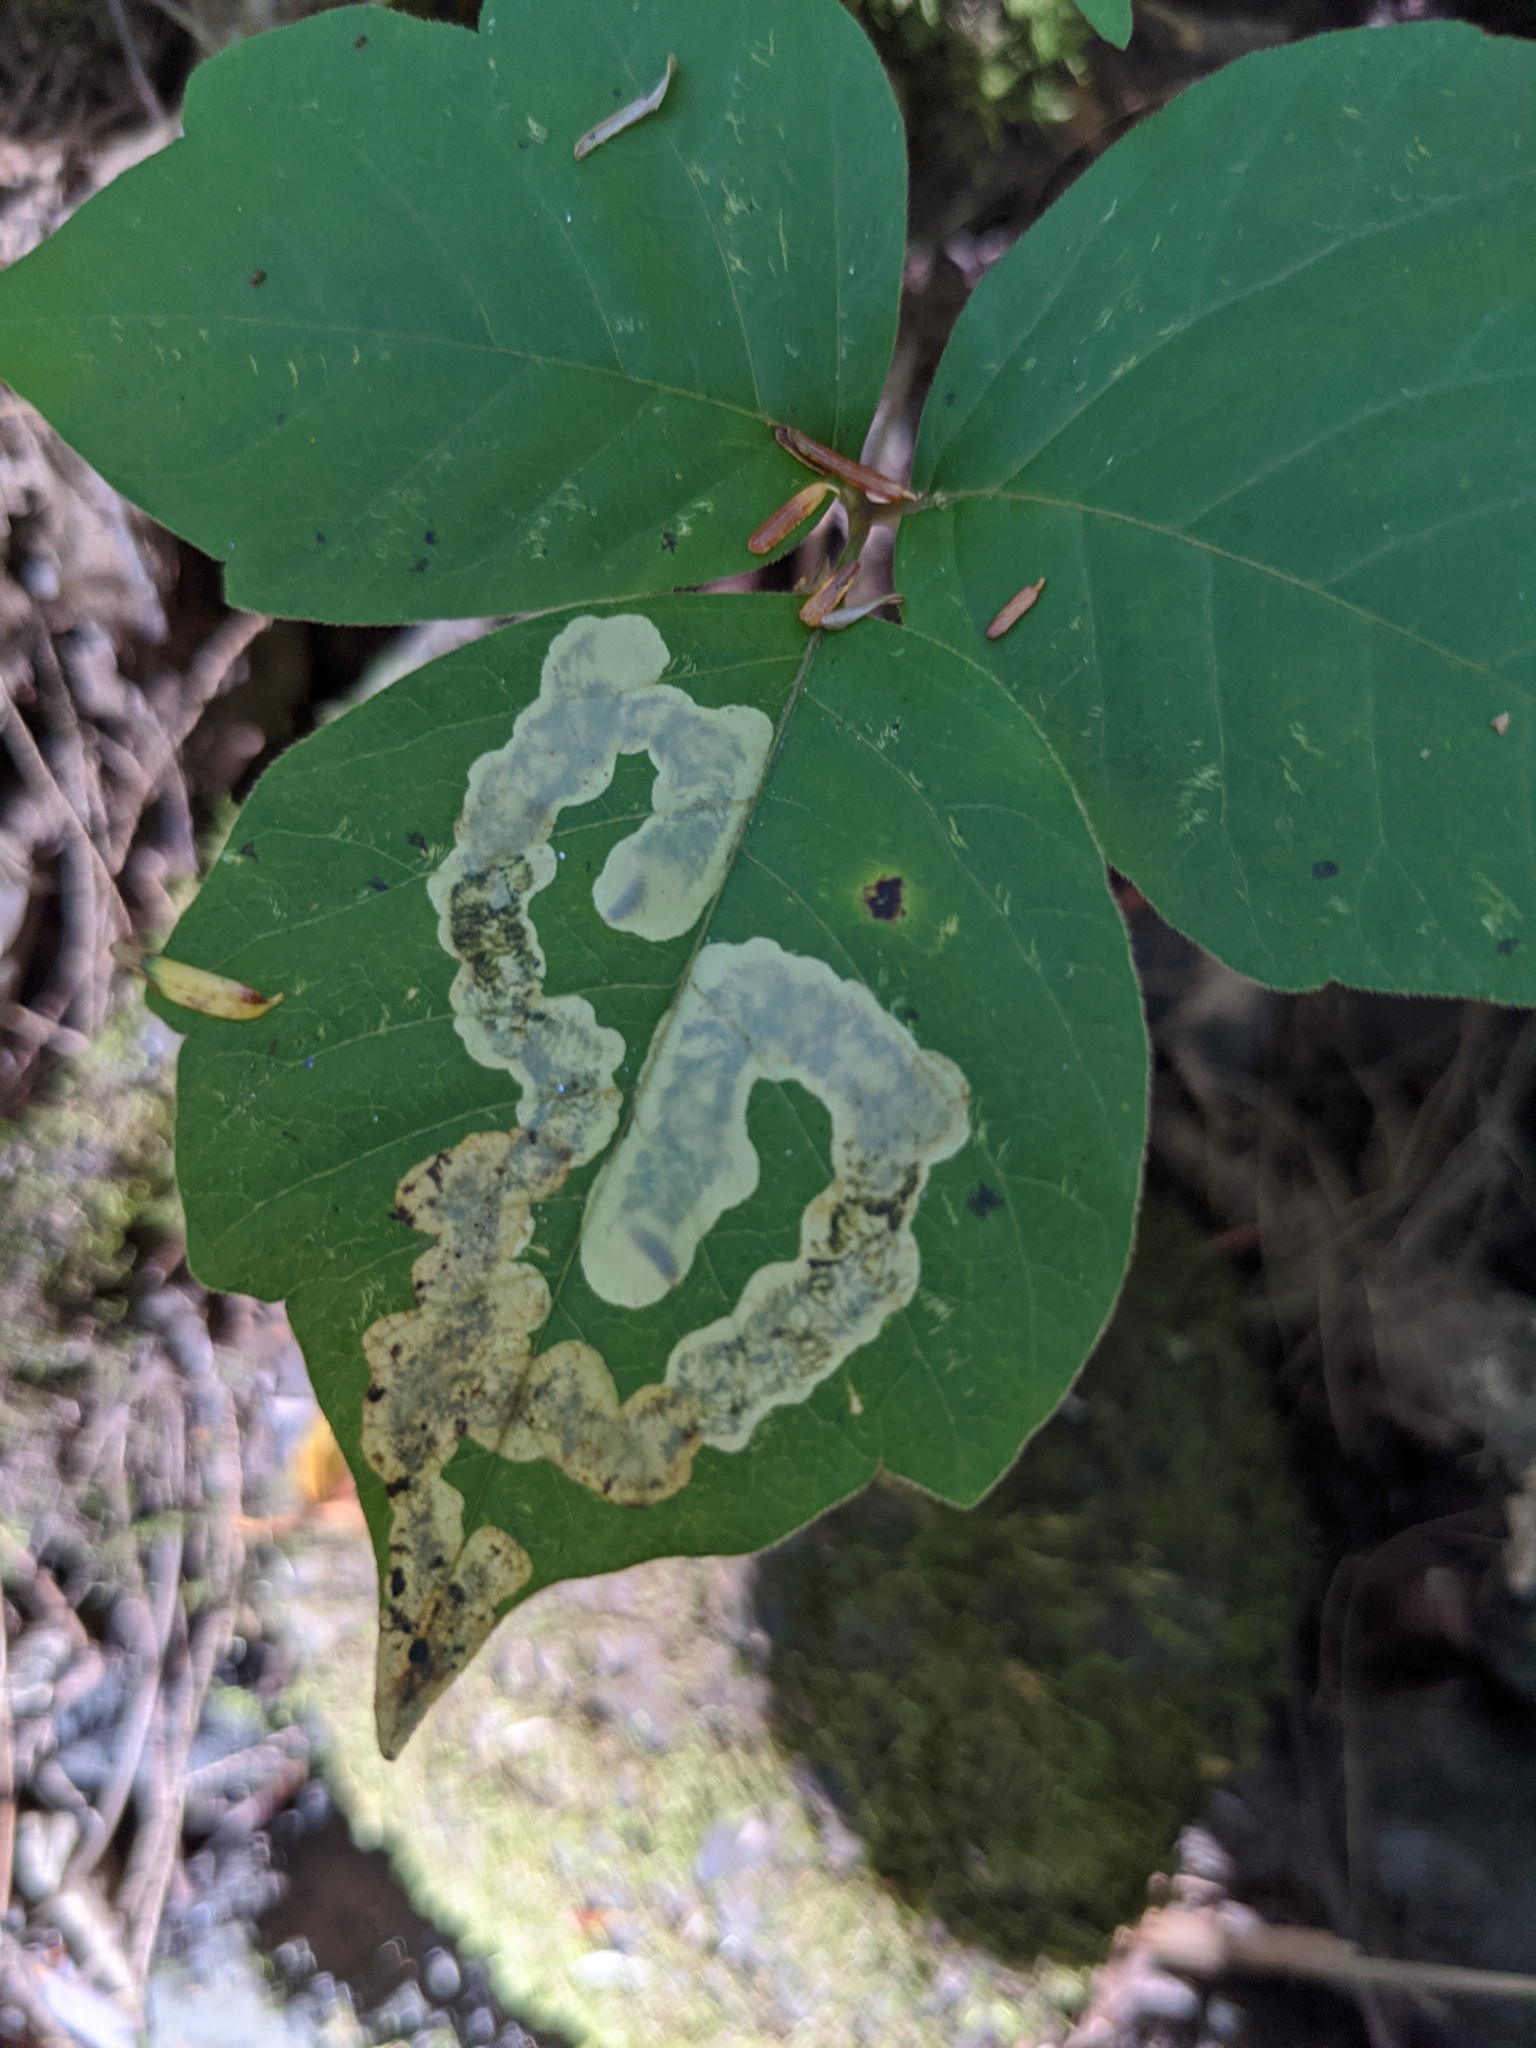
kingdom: Animalia
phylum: Arthropoda
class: Insecta
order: Lepidoptera
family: Gracillariidae
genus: Cameraria
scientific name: Cameraria guttifinitella
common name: Poison ivy leaf-miner moth
